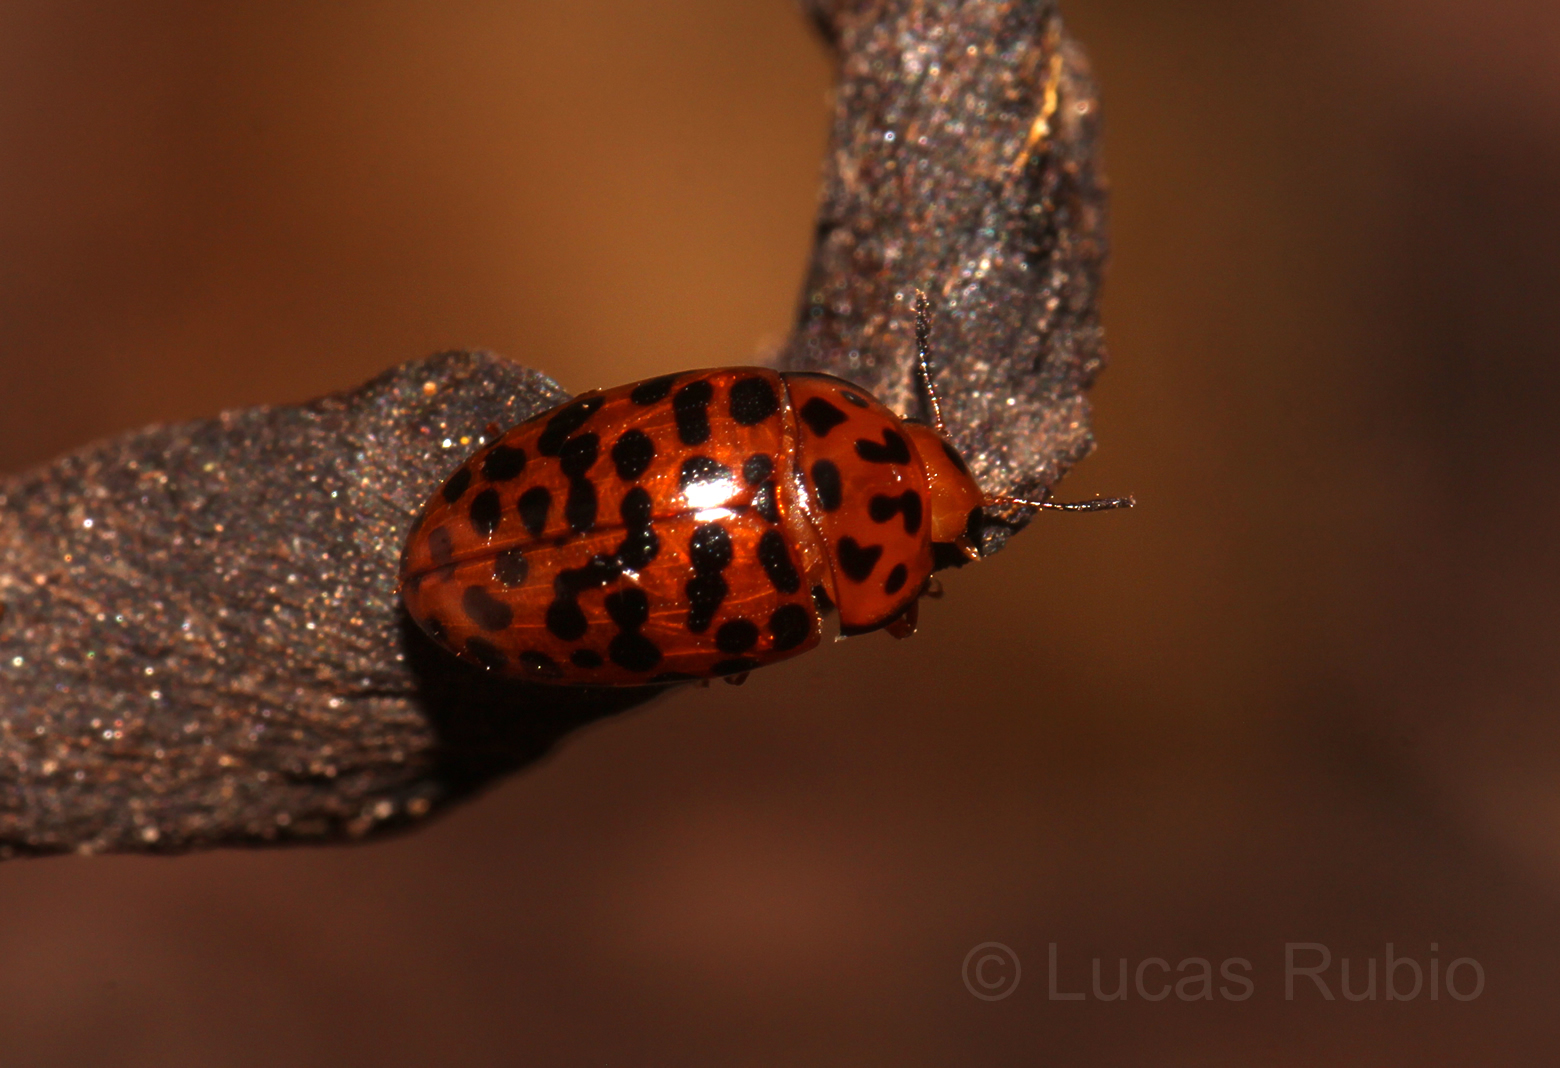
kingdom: Animalia
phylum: Arthropoda
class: Insecta
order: Coleoptera
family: Erotylidae
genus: Mycotretus
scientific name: Mycotretus centralis
